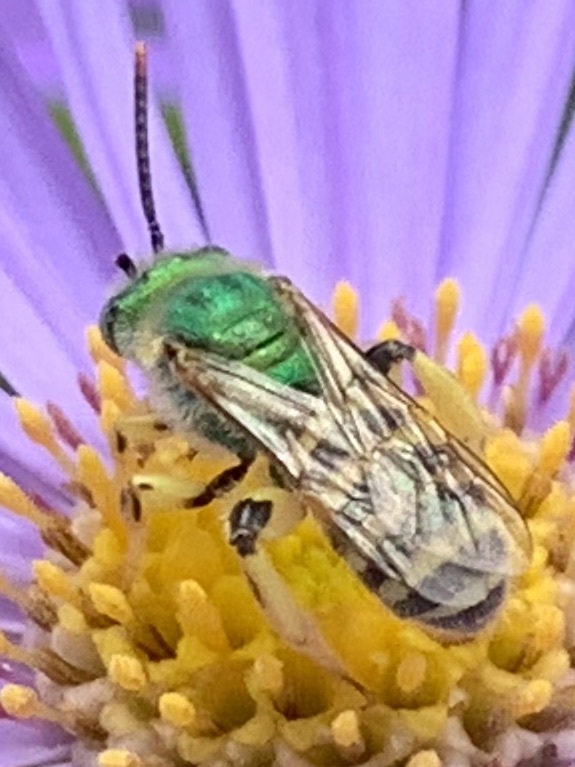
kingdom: Animalia
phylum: Arthropoda
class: Insecta
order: Hymenoptera
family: Halictidae
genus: Agapostemon
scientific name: Agapostemon texanus
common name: Texas striped sweat bee
